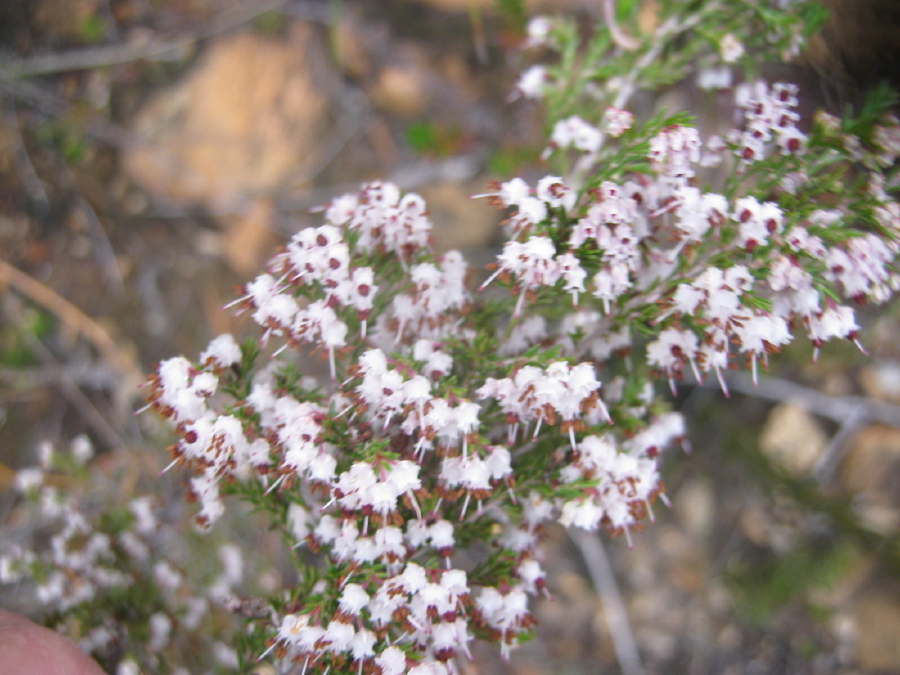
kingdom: Plantae
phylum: Tracheophyta
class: Magnoliopsida
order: Ericales
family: Ericaceae
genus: Erica
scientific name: Erica demissa
